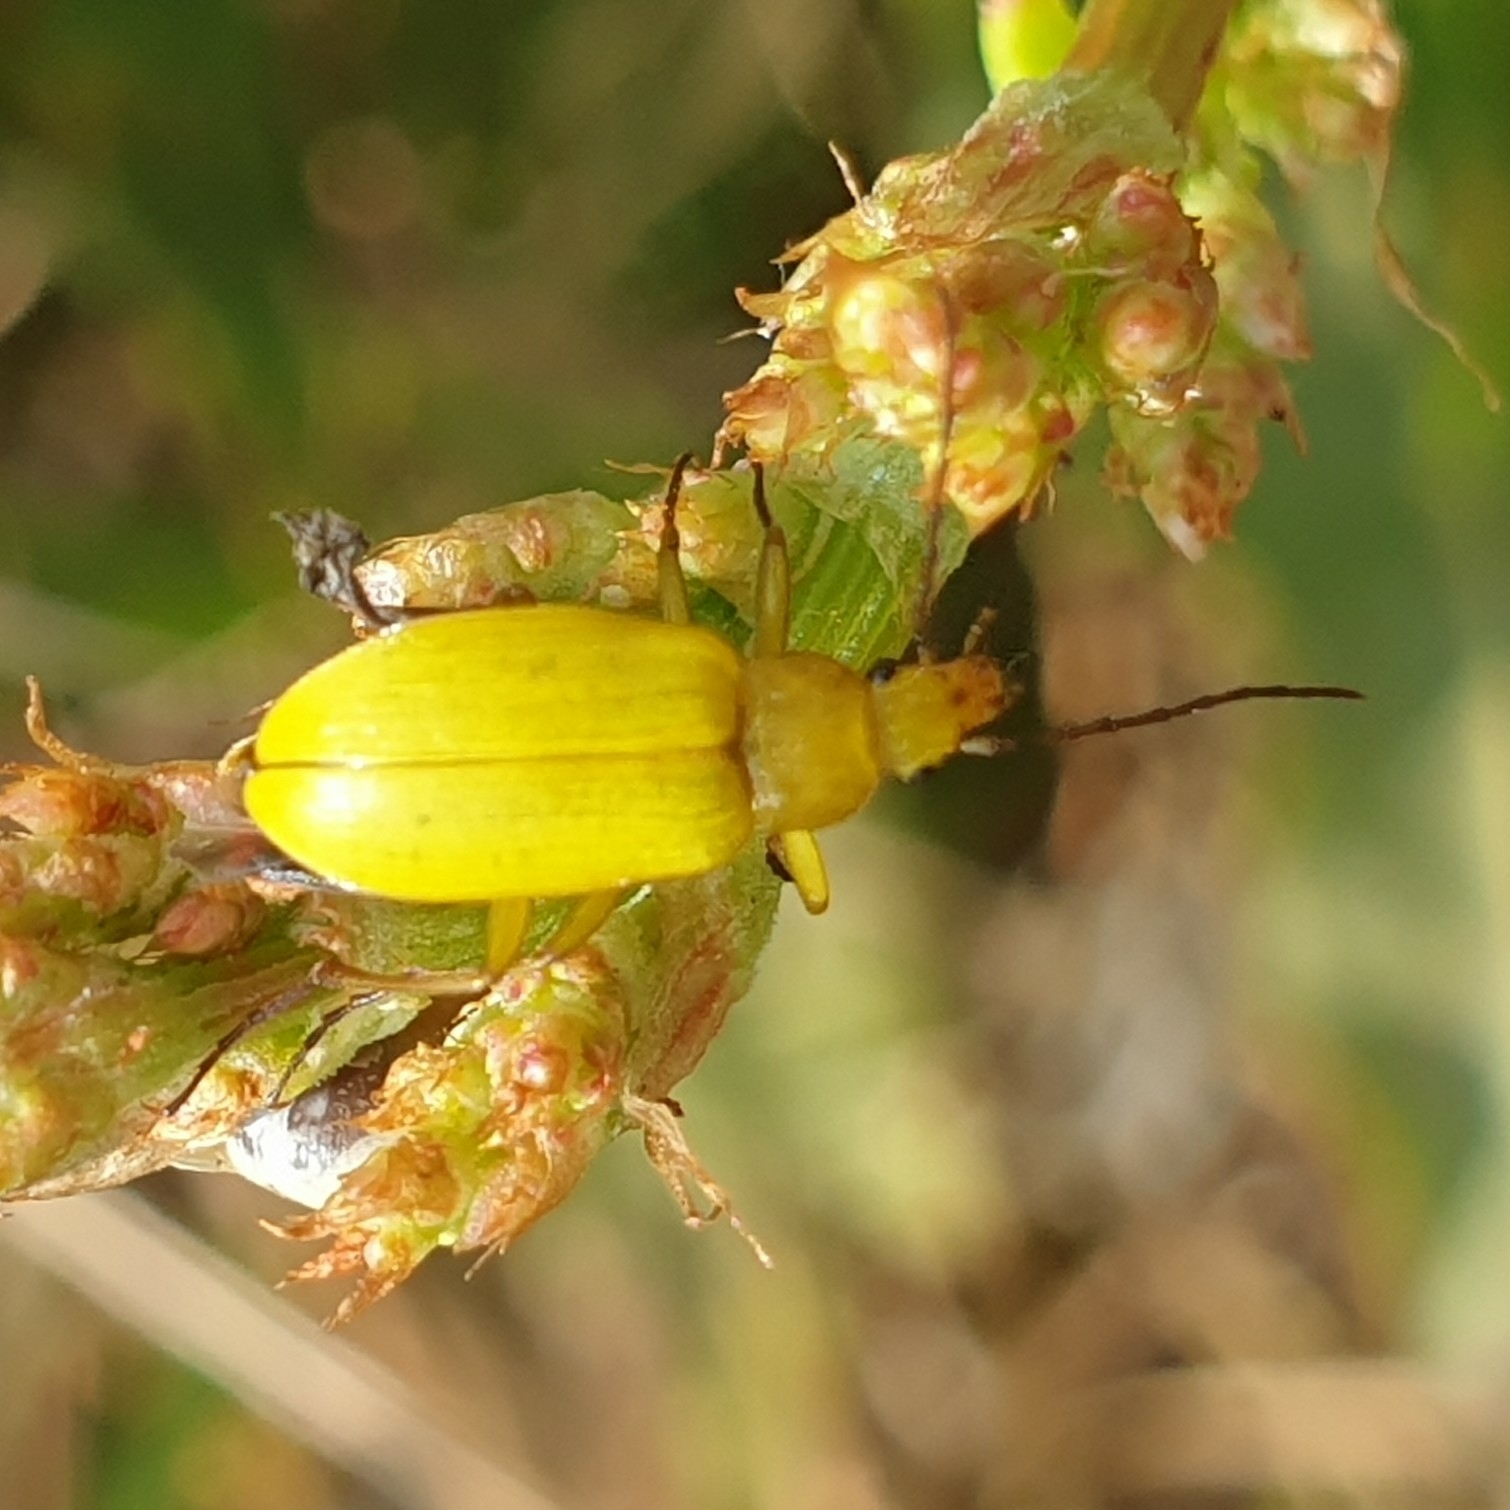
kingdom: Animalia
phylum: Arthropoda
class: Insecta
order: Coleoptera
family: Tenebrionidae
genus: Cteniopus
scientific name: Cteniopus sulphureus
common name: Sulphur beetle
